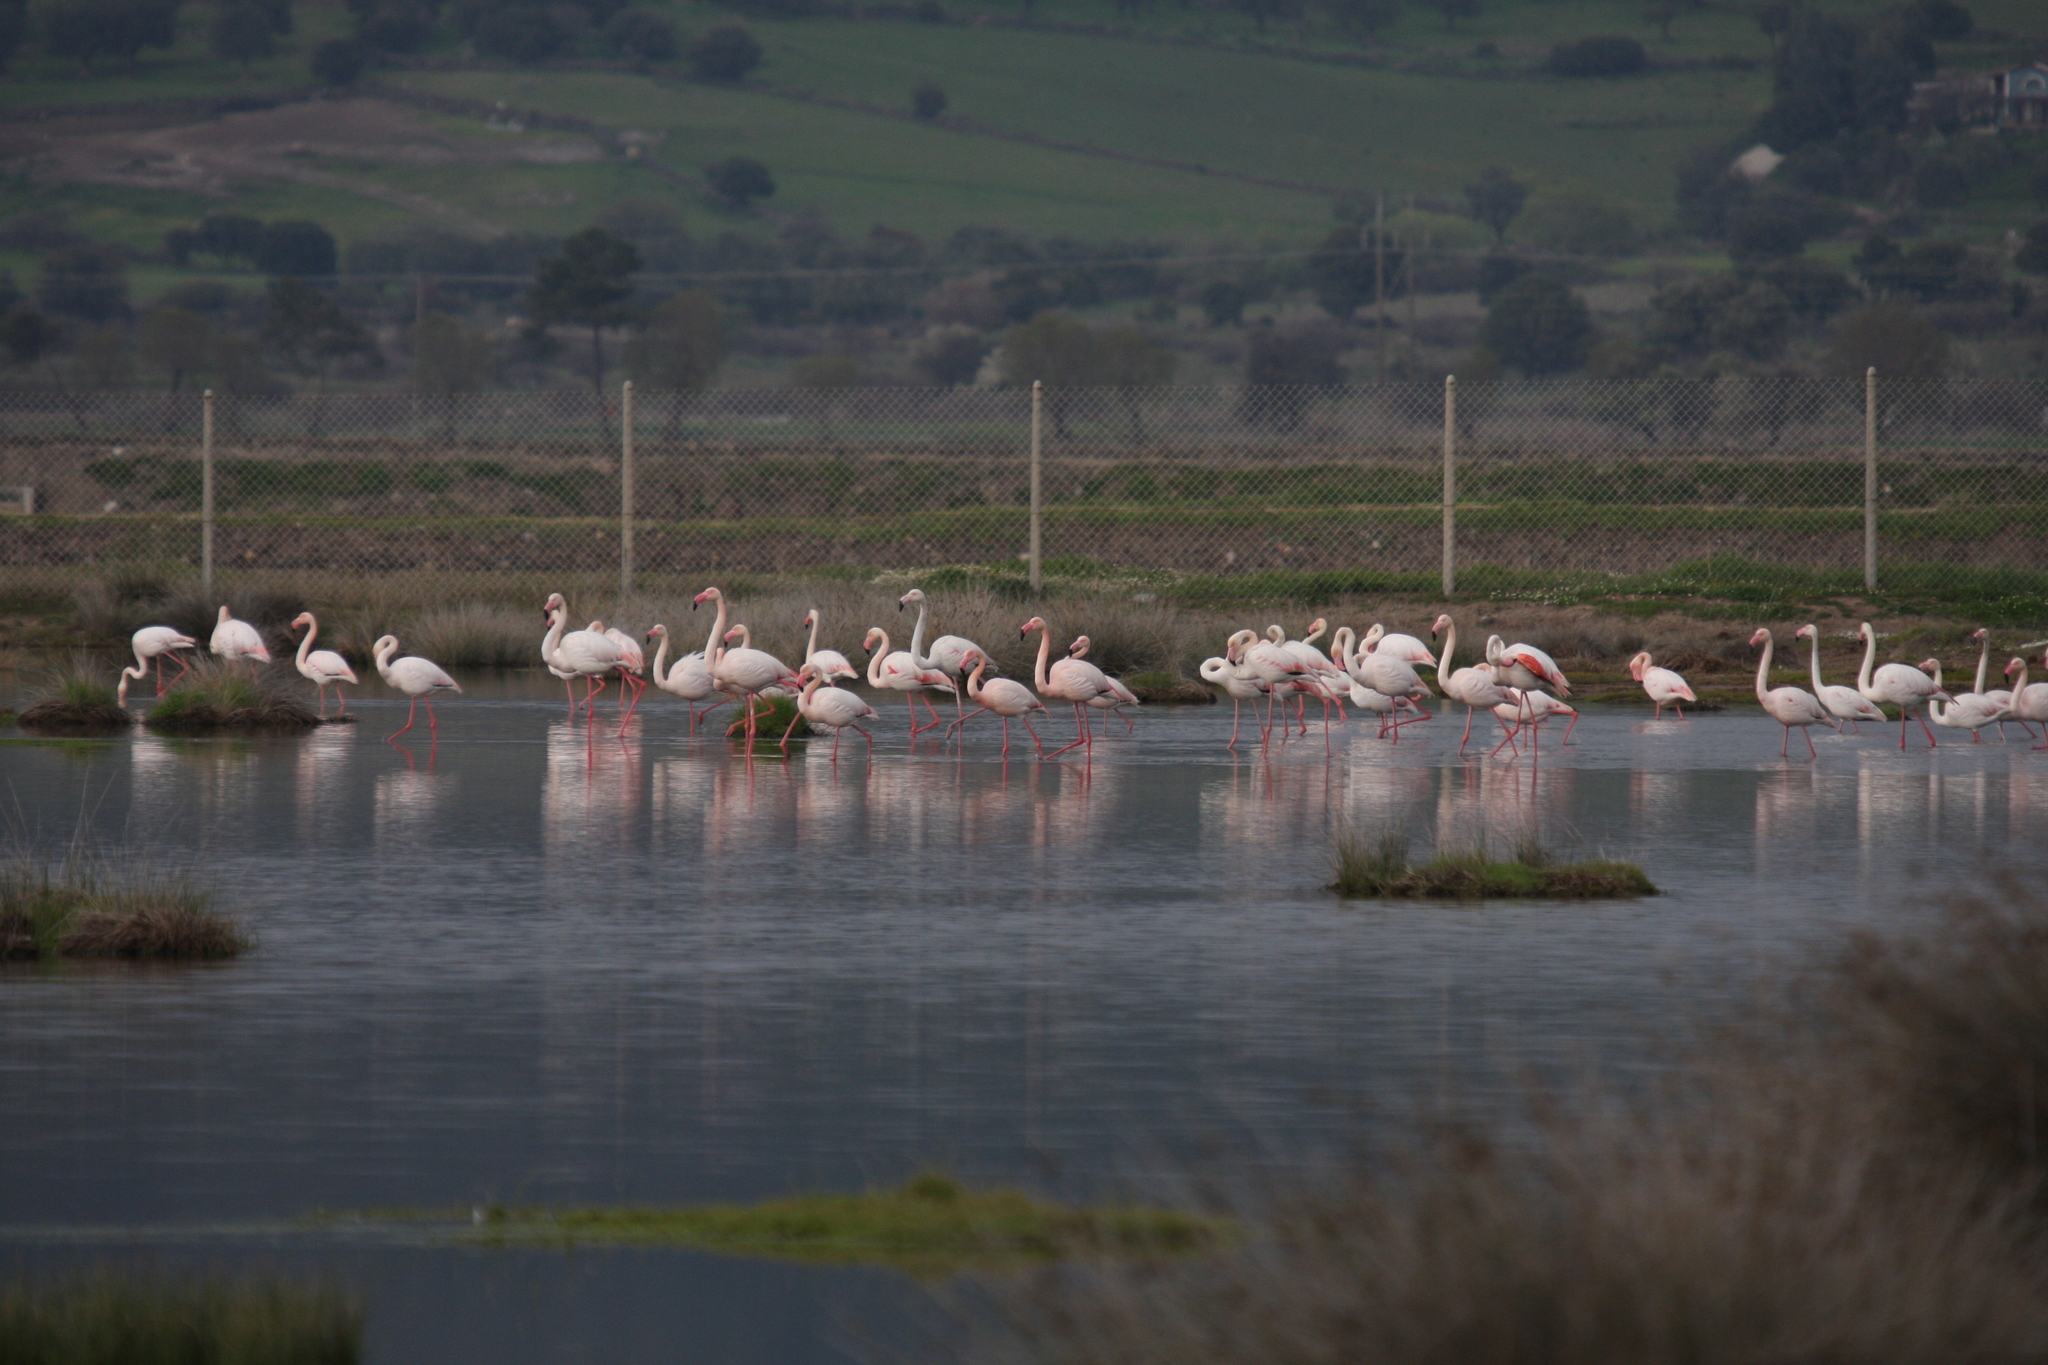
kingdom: Animalia
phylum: Chordata
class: Aves
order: Phoenicopteriformes
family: Phoenicopteridae
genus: Phoenicopterus
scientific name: Phoenicopterus roseus
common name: Greater flamingo
